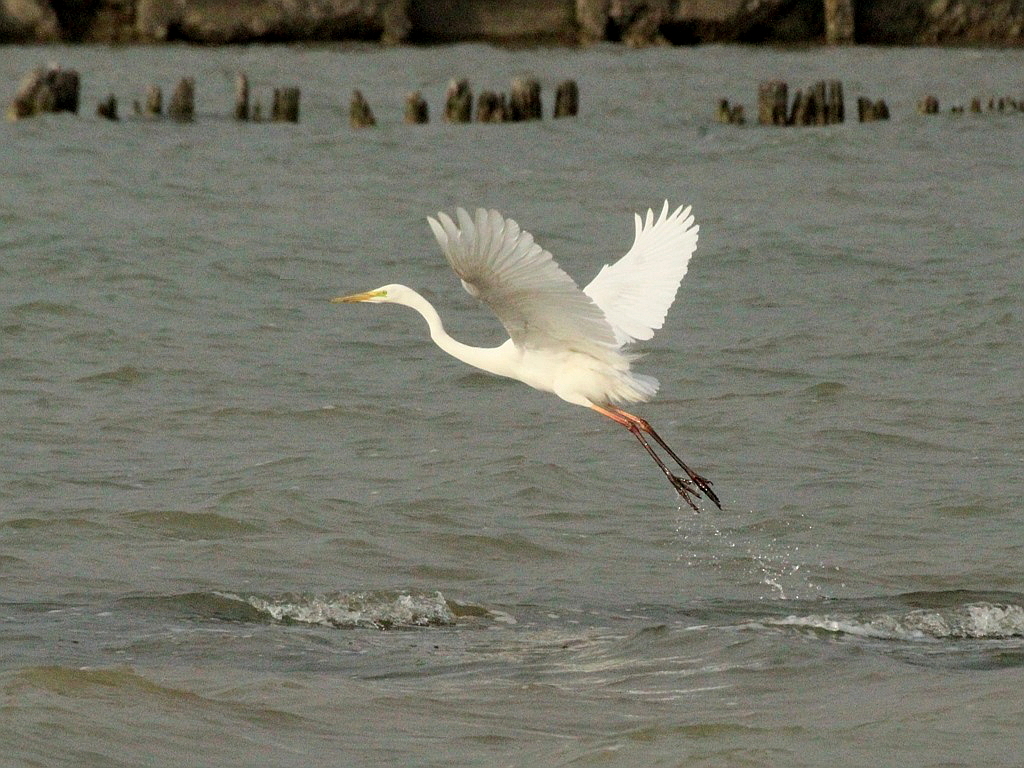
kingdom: Animalia
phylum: Chordata
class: Aves
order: Pelecaniformes
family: Ardeidae
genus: Ardea
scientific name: Ardea alba
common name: Great egret
